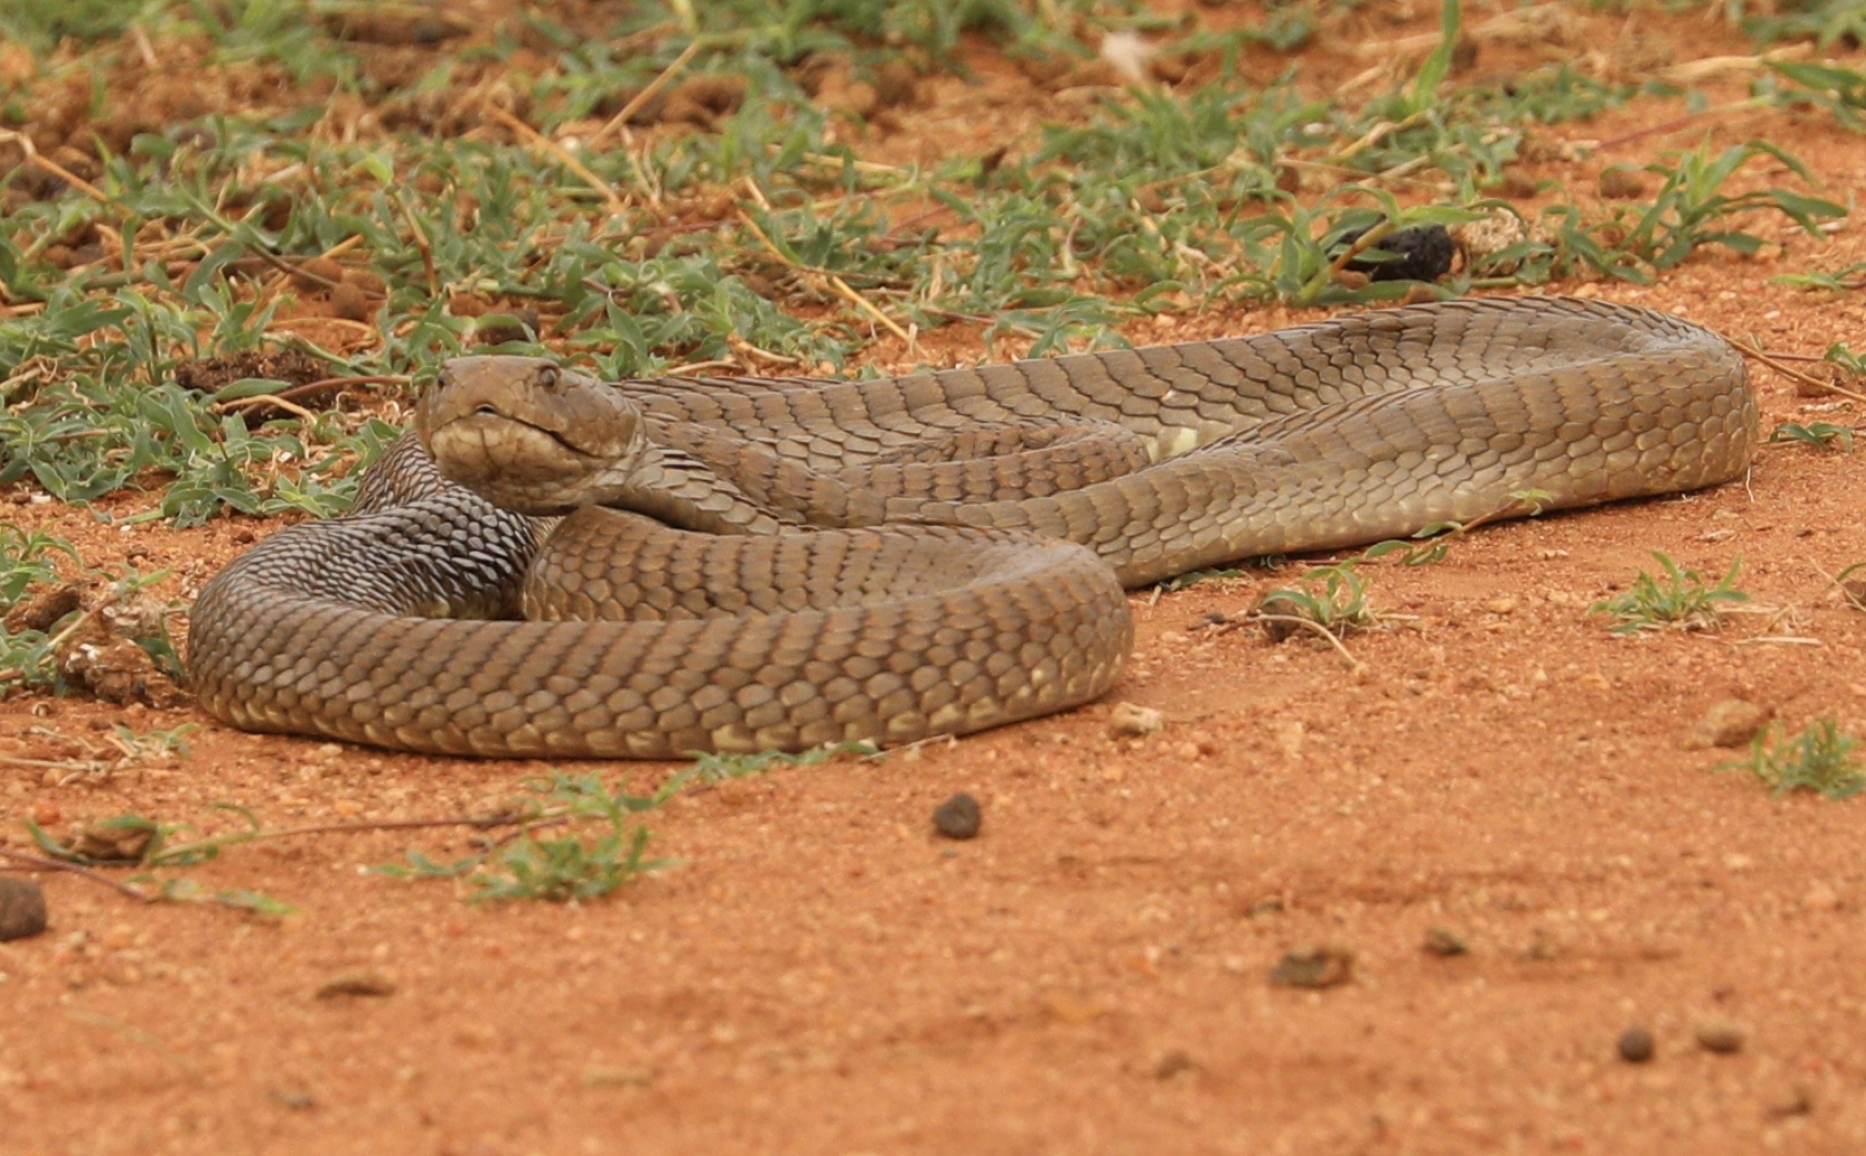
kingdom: Animalia
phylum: Chordata
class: Squamata
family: Elapidae
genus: Naja
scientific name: Naja ashei
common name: Ashe’s spitting cobra
